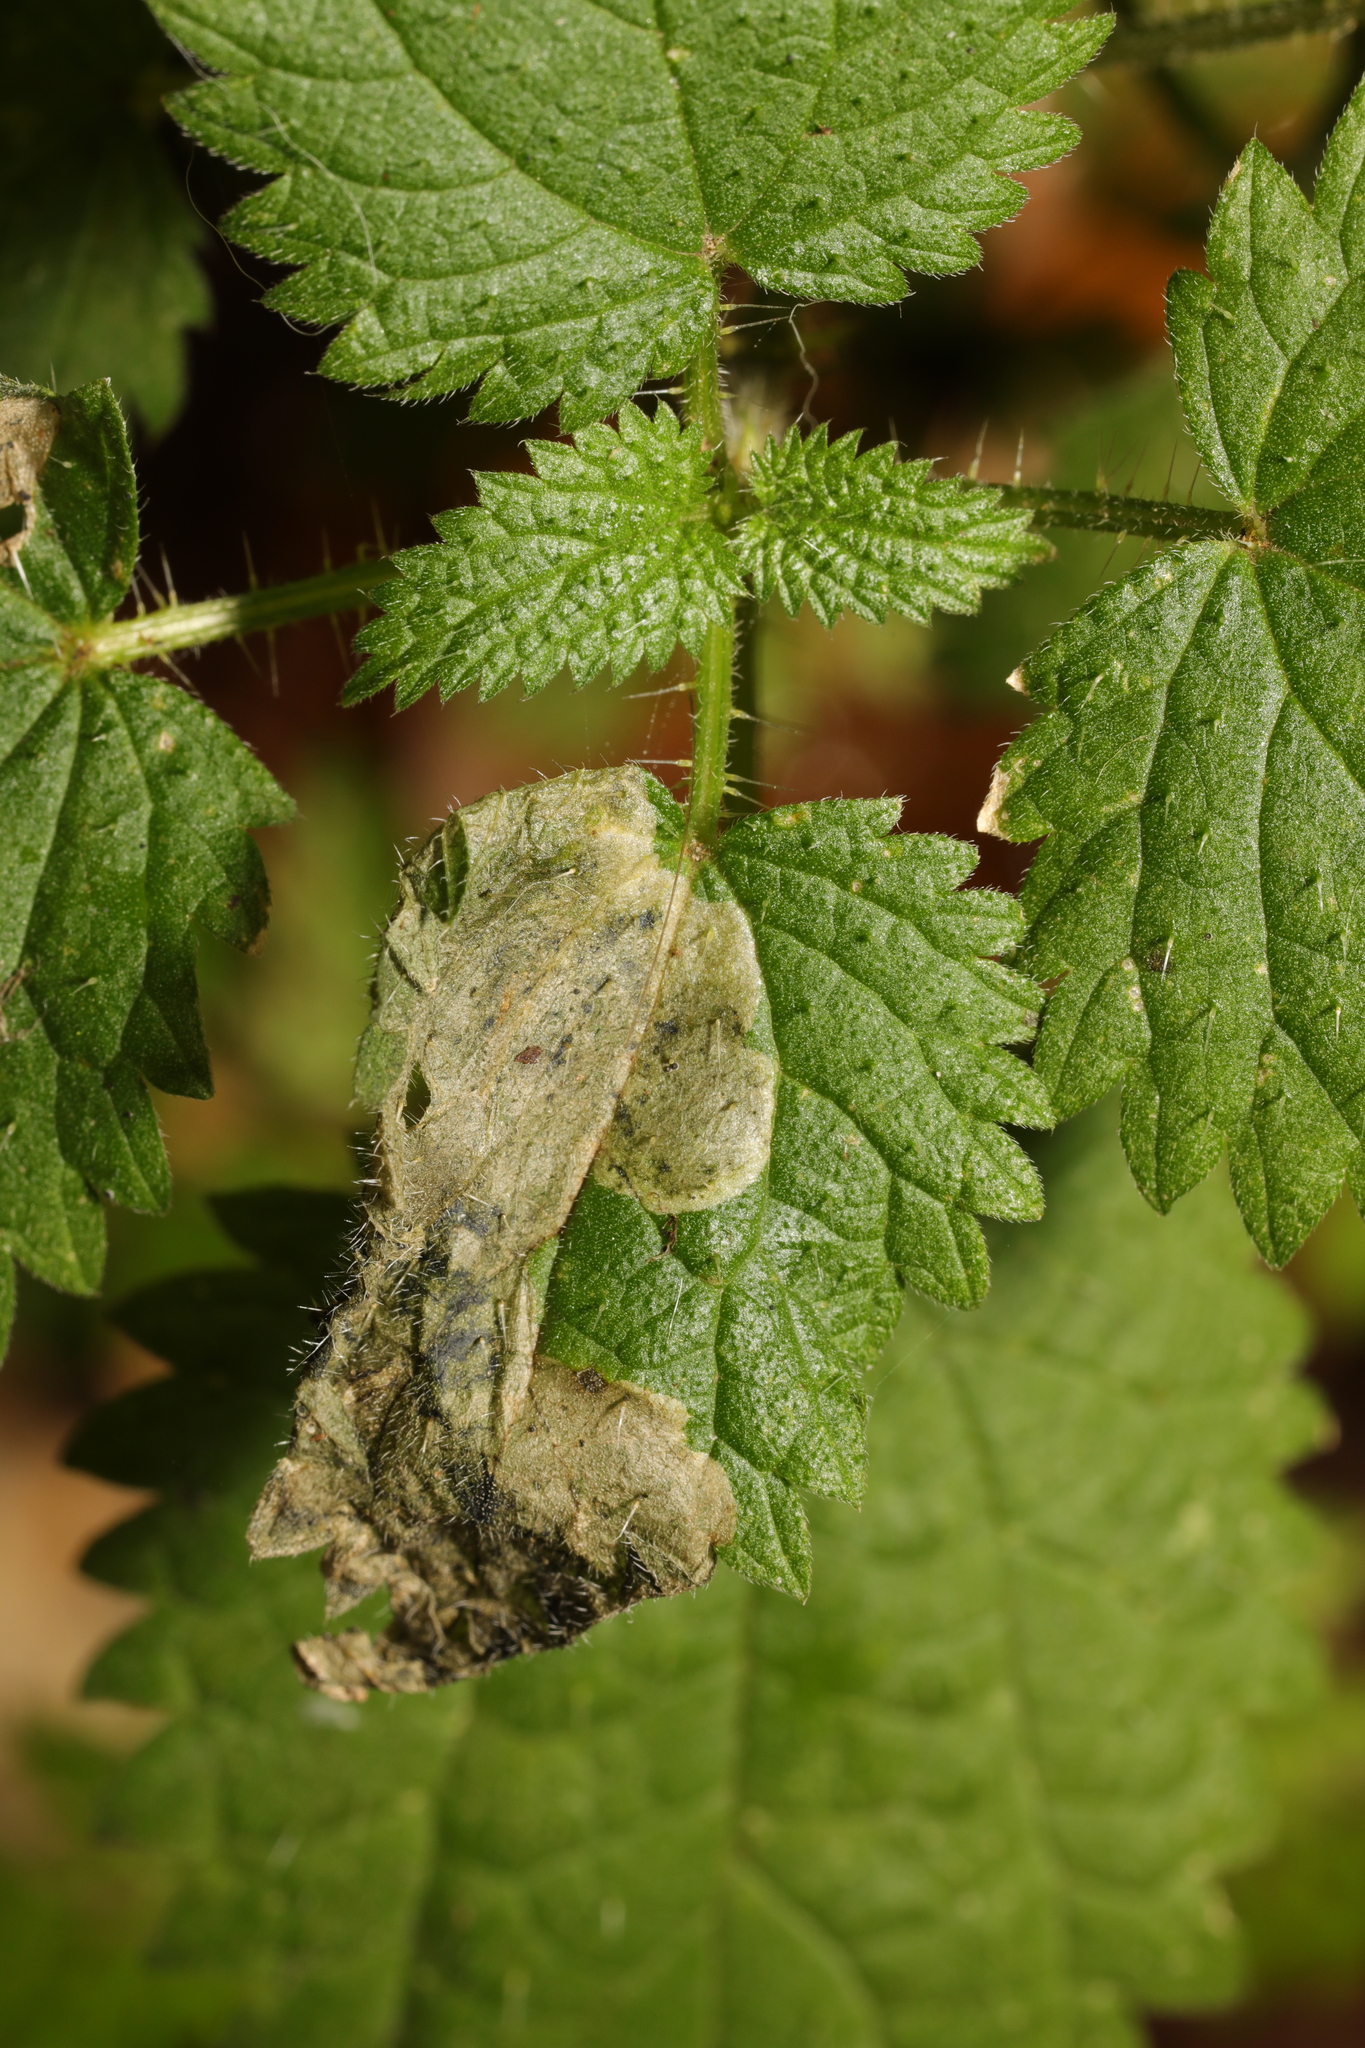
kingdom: Animalia
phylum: Arthropoda
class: Insecta
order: Diptera
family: Agromyzidae
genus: Agromyza
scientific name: Agromyza anthracina
